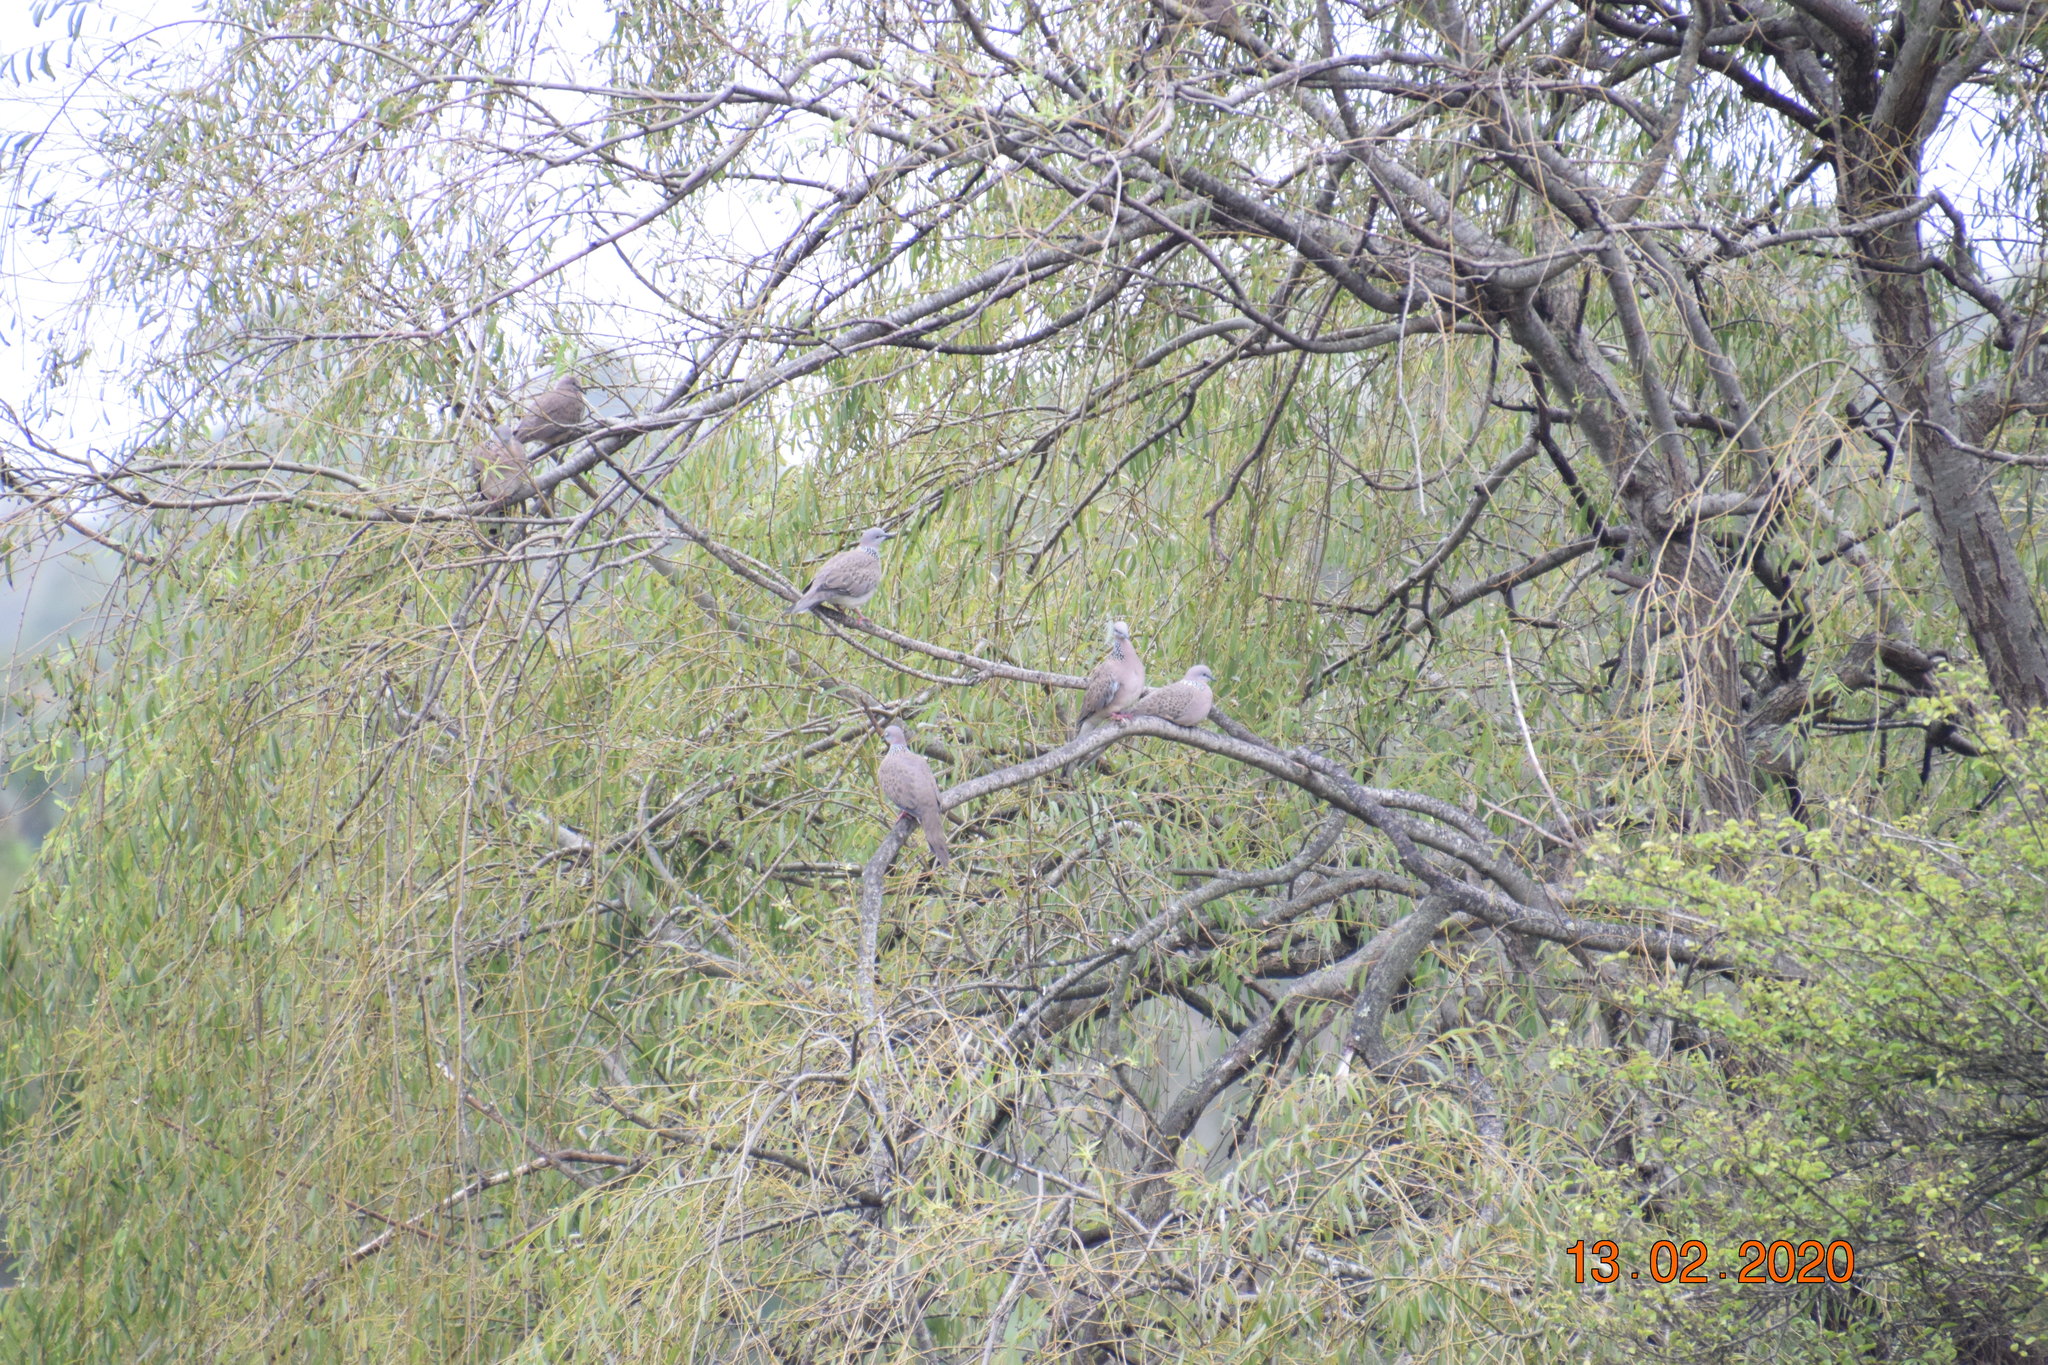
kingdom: Animalia
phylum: Chordata
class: Aves
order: Columbiformes
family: Columbidae
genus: Spilopelia
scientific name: Spilopelia chinensis
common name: Spotted dove
